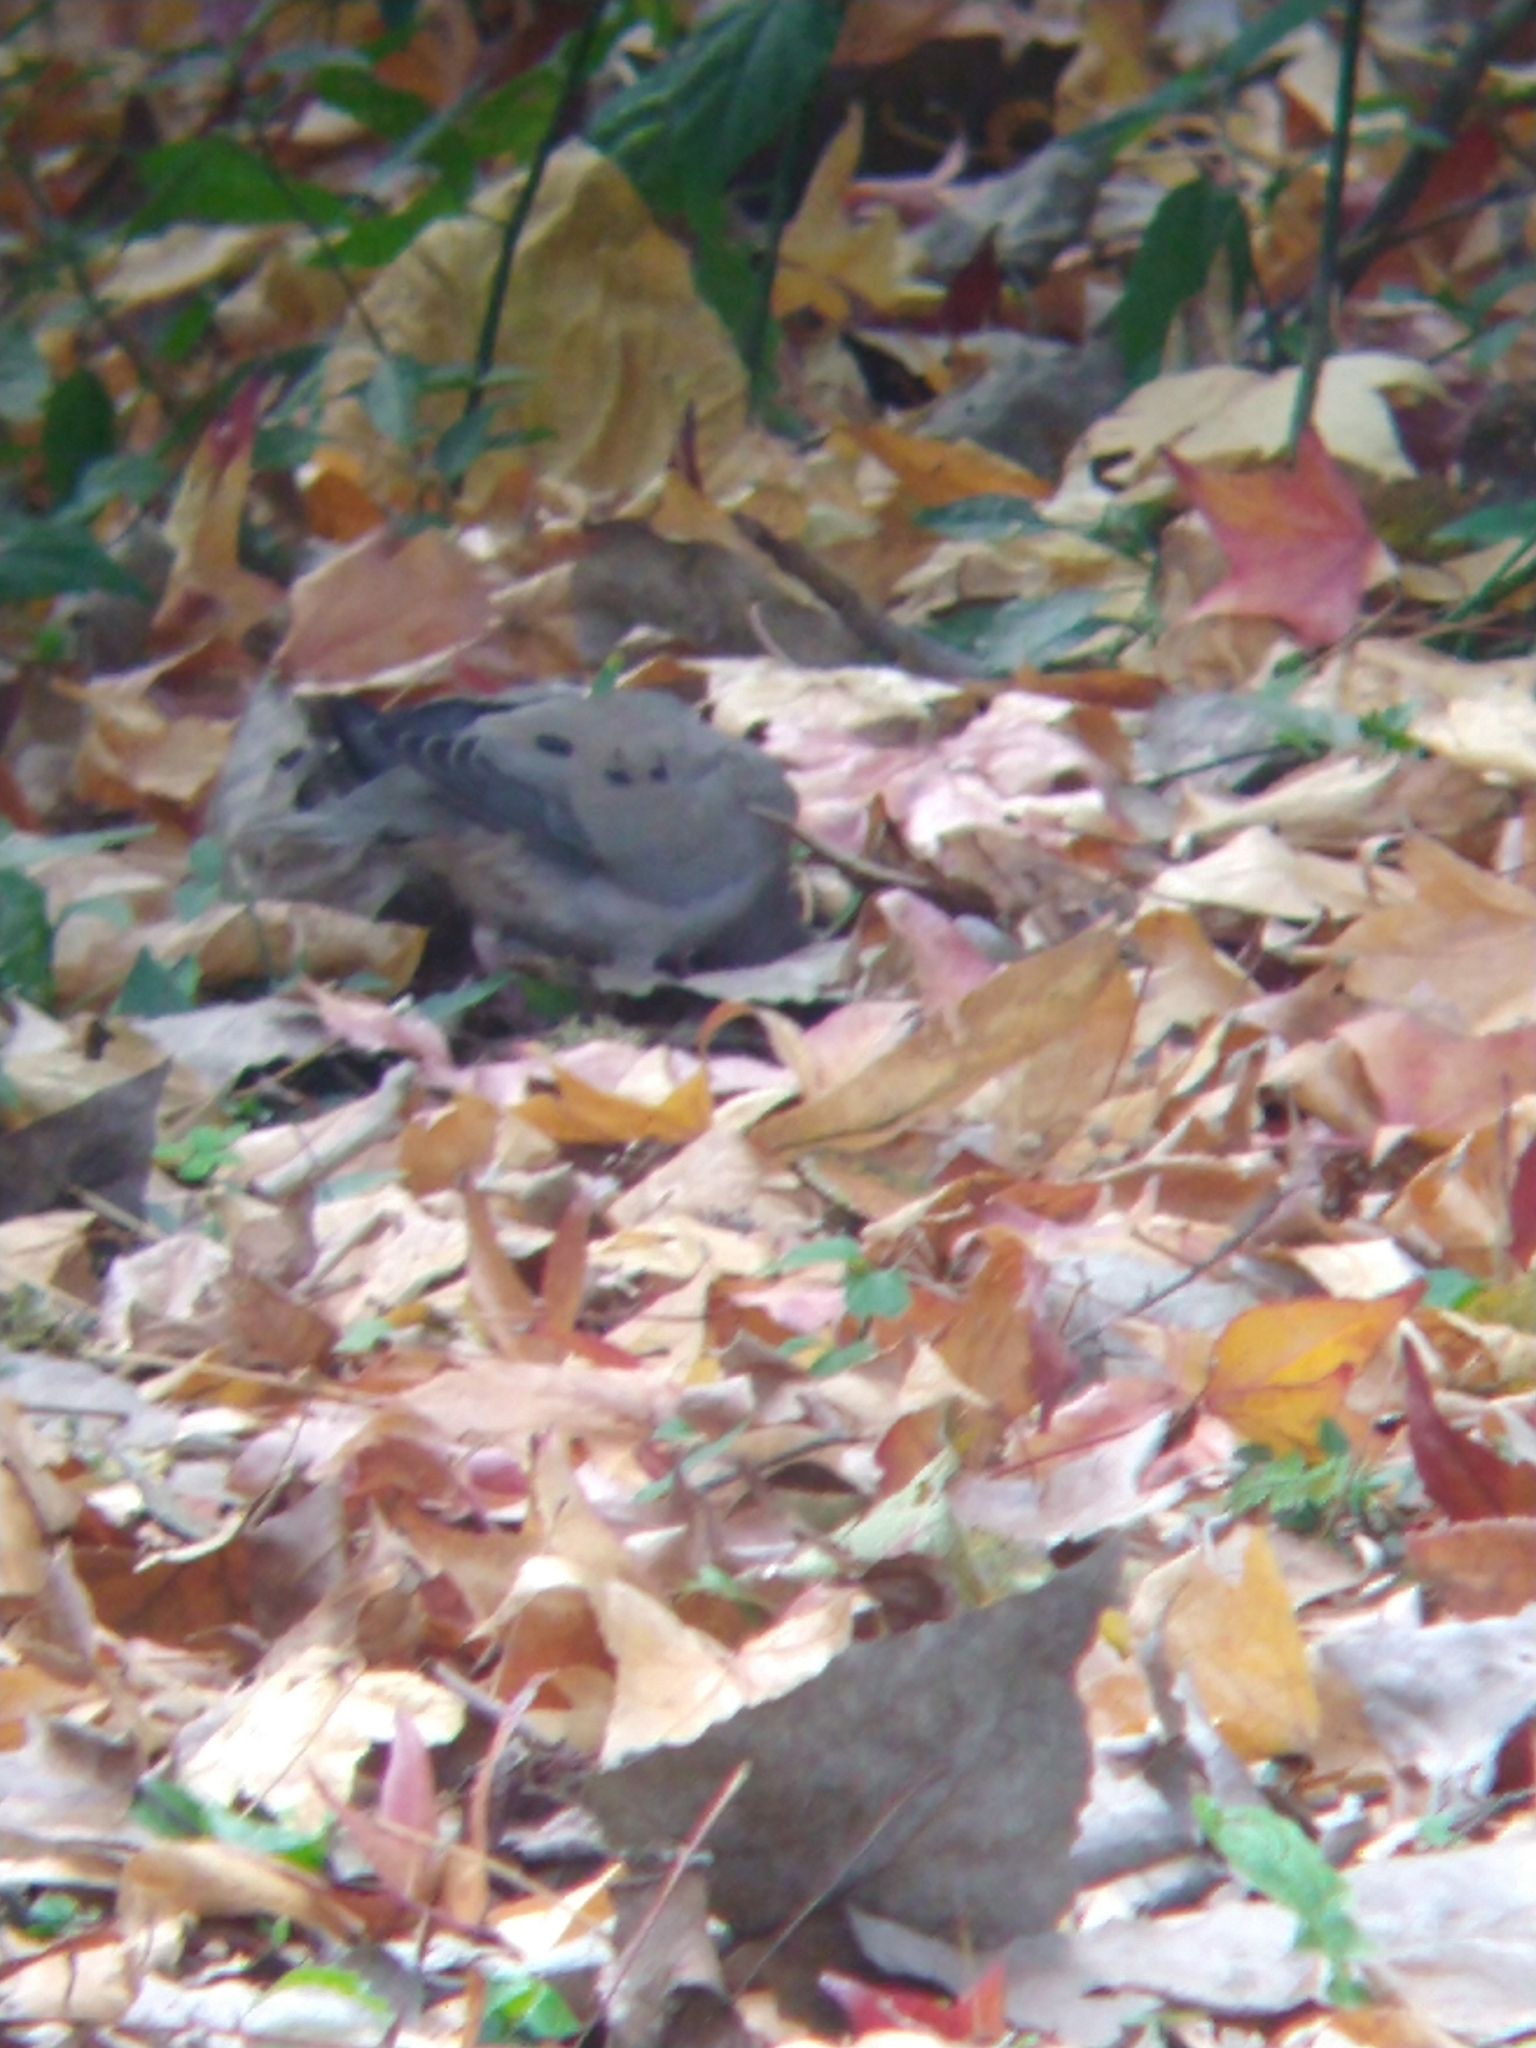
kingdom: Animalia
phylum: Chordata
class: Aves
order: Columbiformes
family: Columbidae
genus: Zenaida
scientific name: Zenaida auriculata
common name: Eared dove
